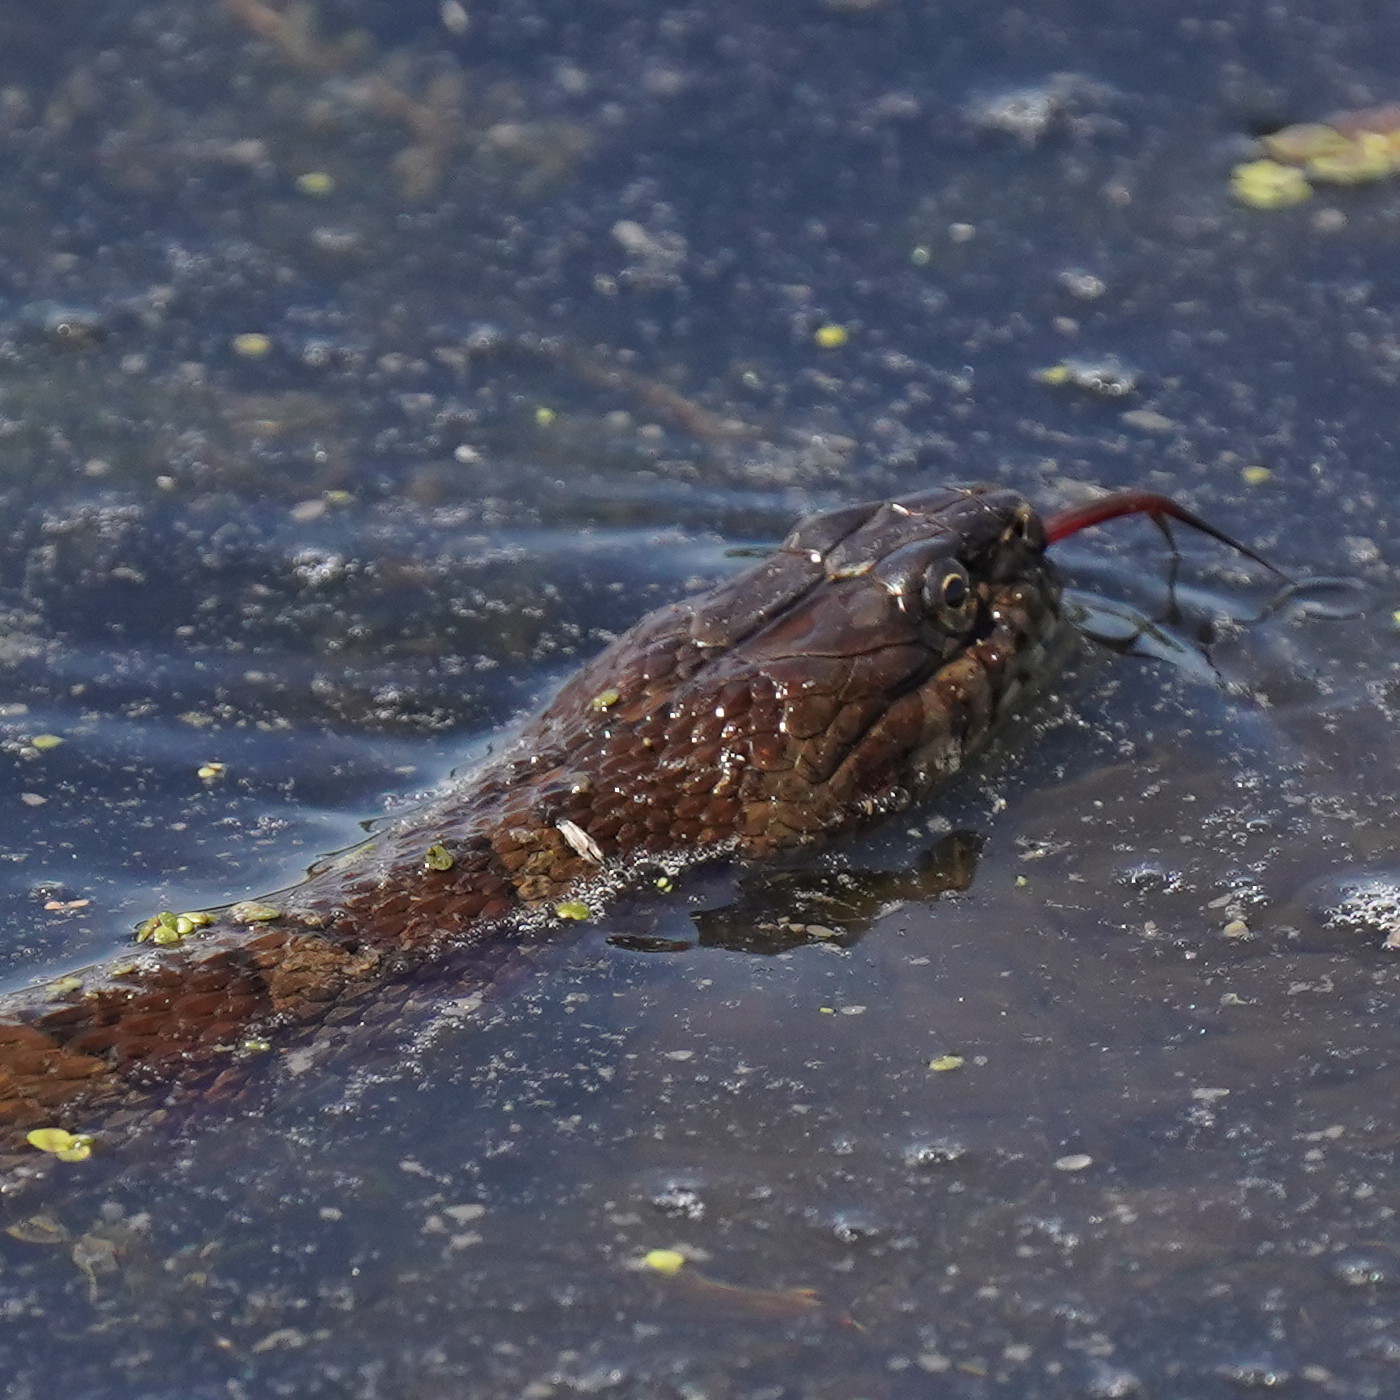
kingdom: Animalia
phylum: Chordata
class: Squamata
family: Colubridae
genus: Nerodia
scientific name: Nerodia sipedon
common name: Northern water snake
